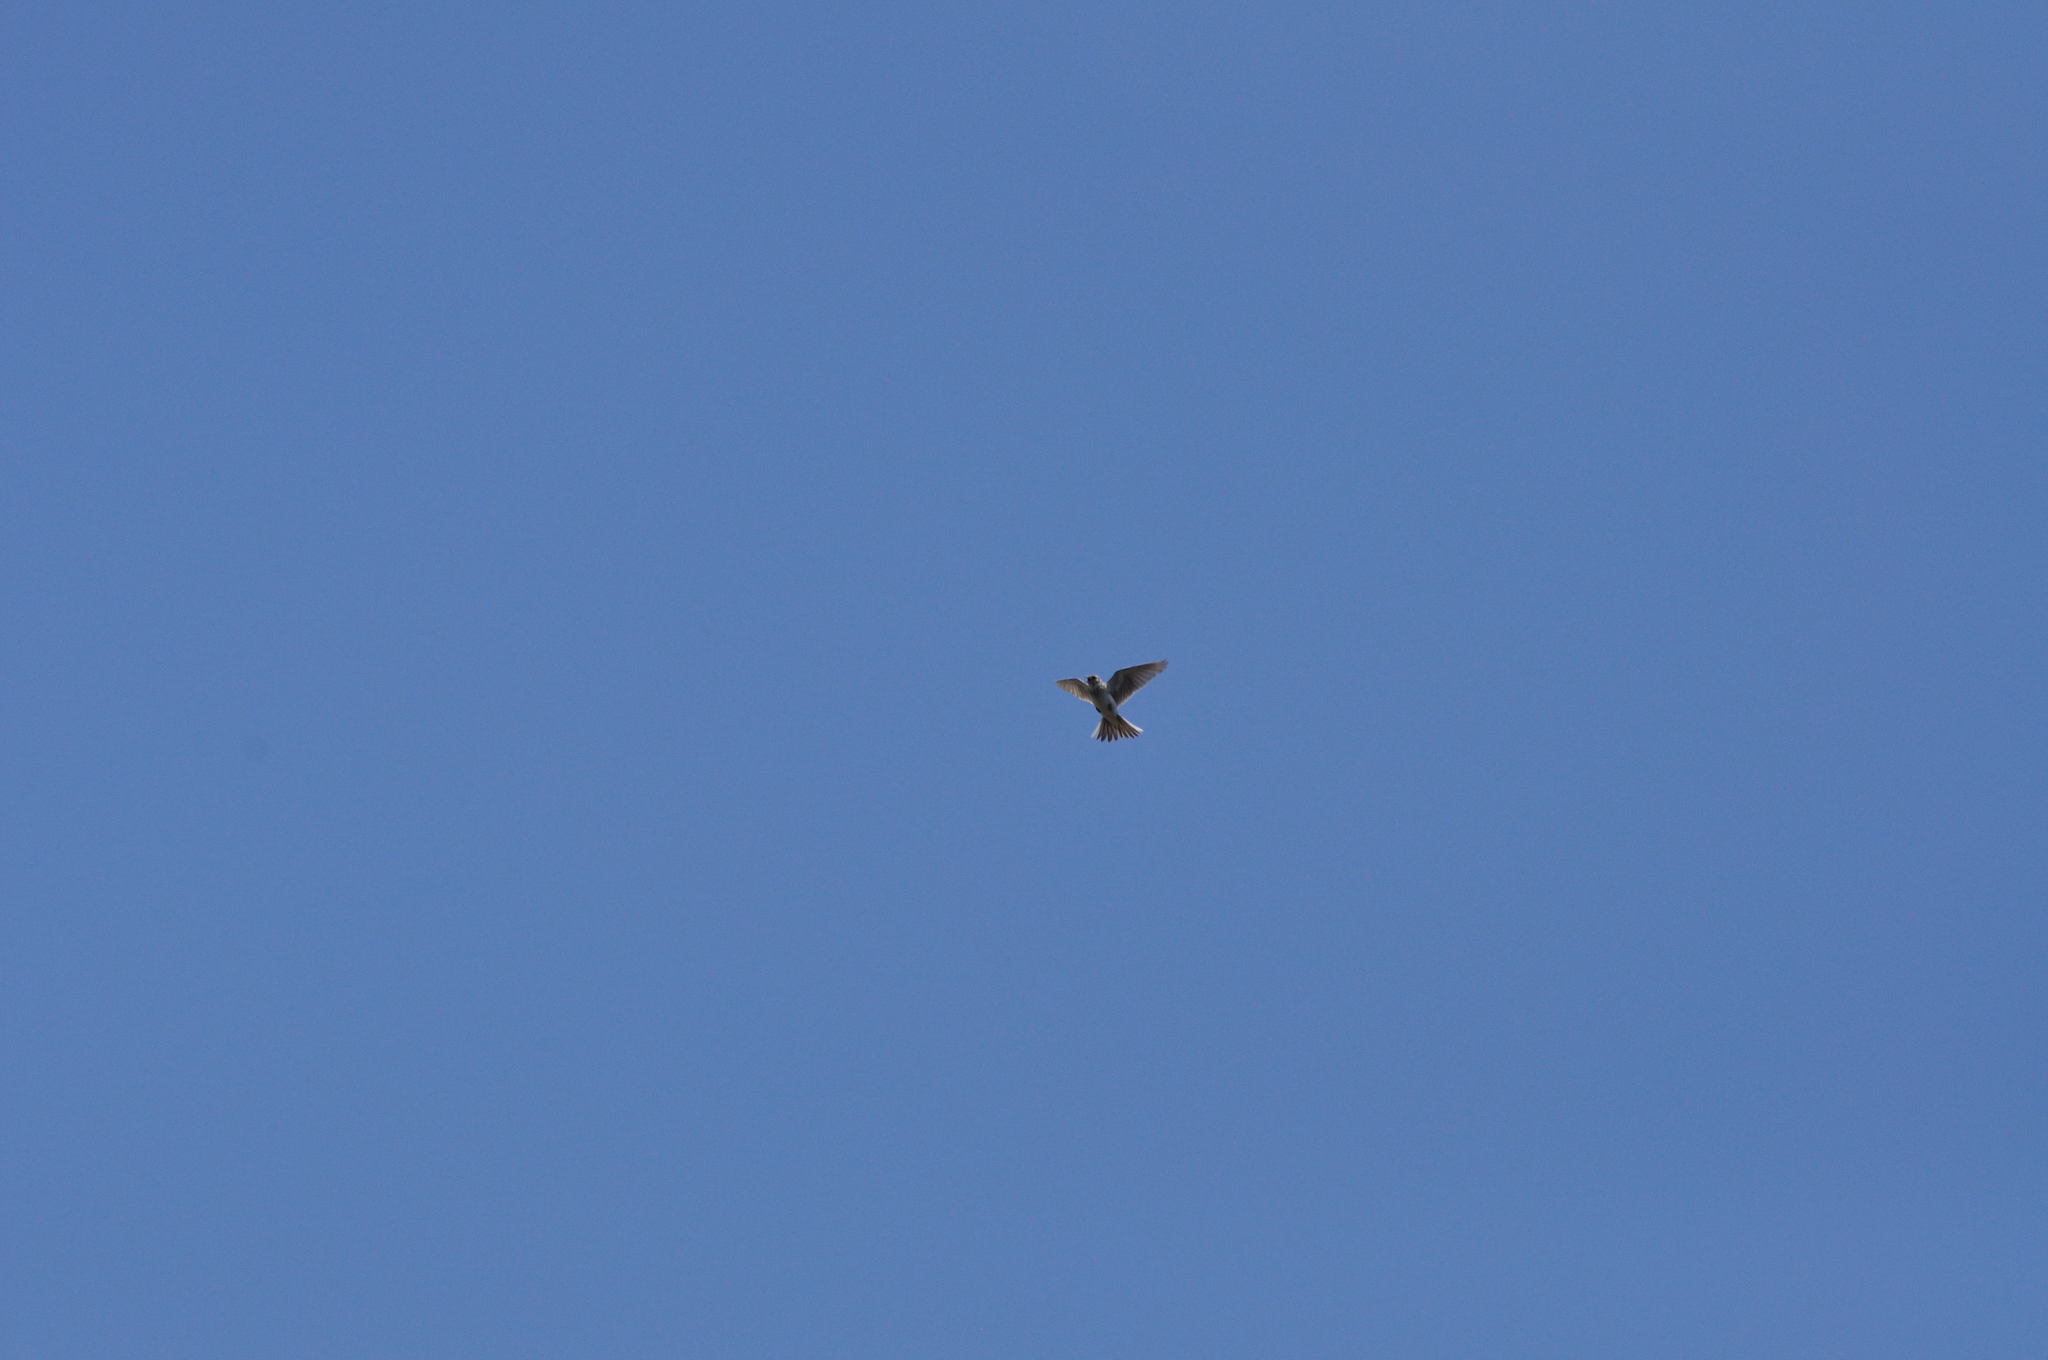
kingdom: Animalia
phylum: Chordata
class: Aves
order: Passeriformes
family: Alaudidae
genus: Alauda
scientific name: Alauda arvensis
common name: Eurasian skylark
